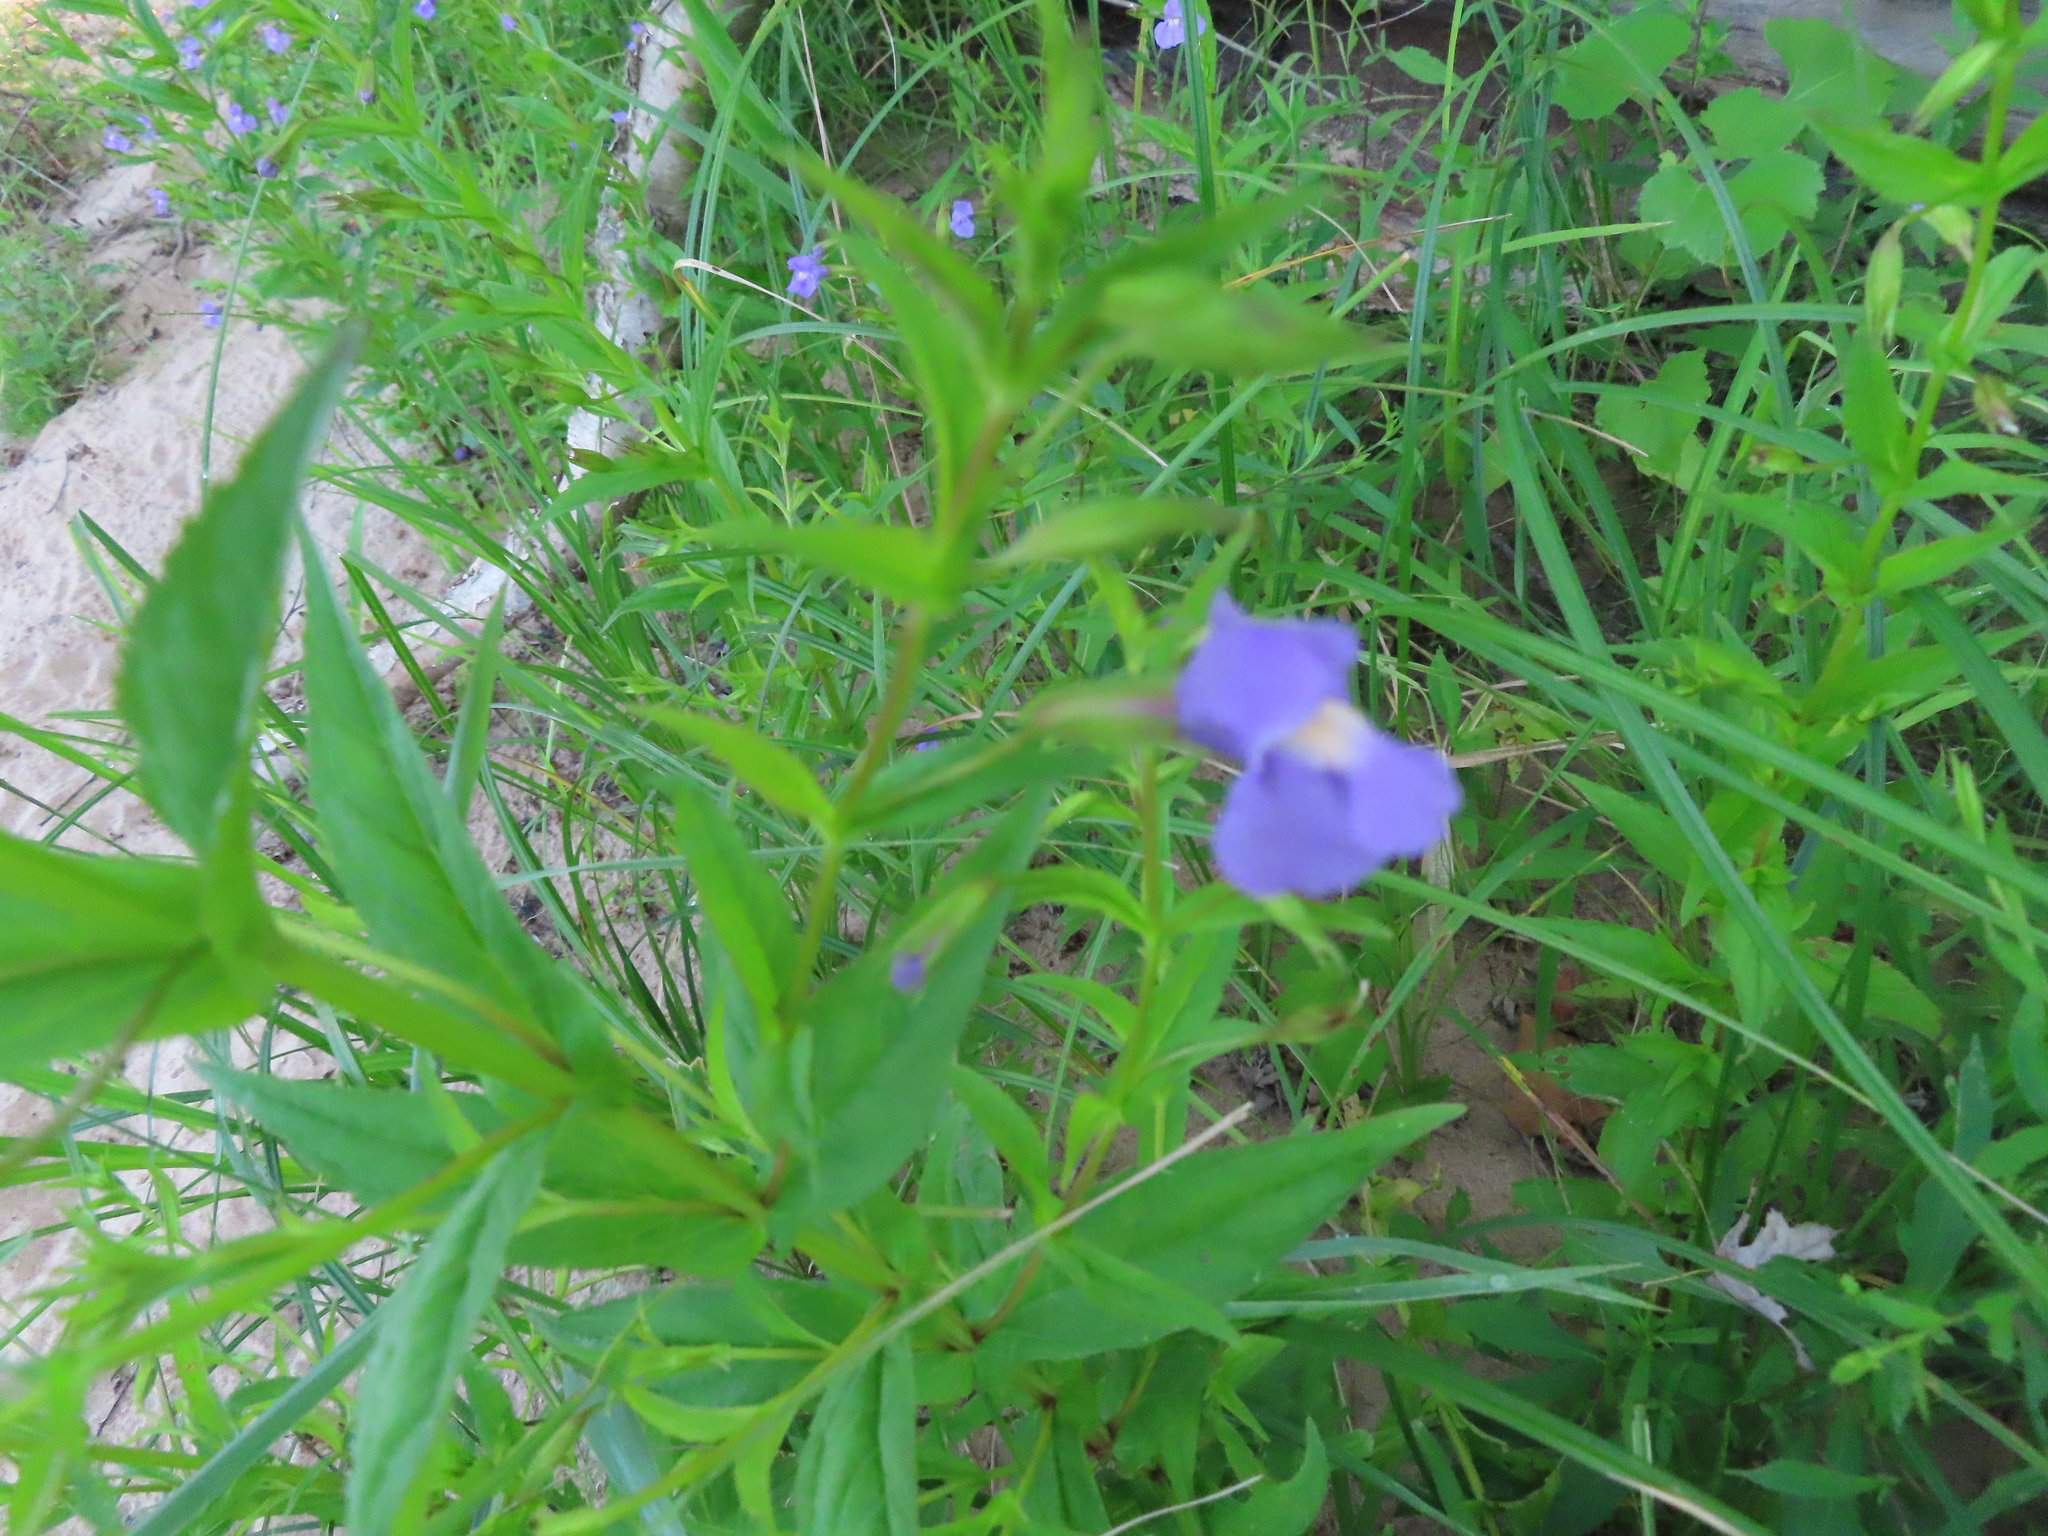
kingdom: Plantae
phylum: Tracheophyta
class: Magnoliopsida
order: Lamiales
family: Phrymaceae
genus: Mimulus
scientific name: Mimulus ringens
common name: Allegheny monkeyflower
